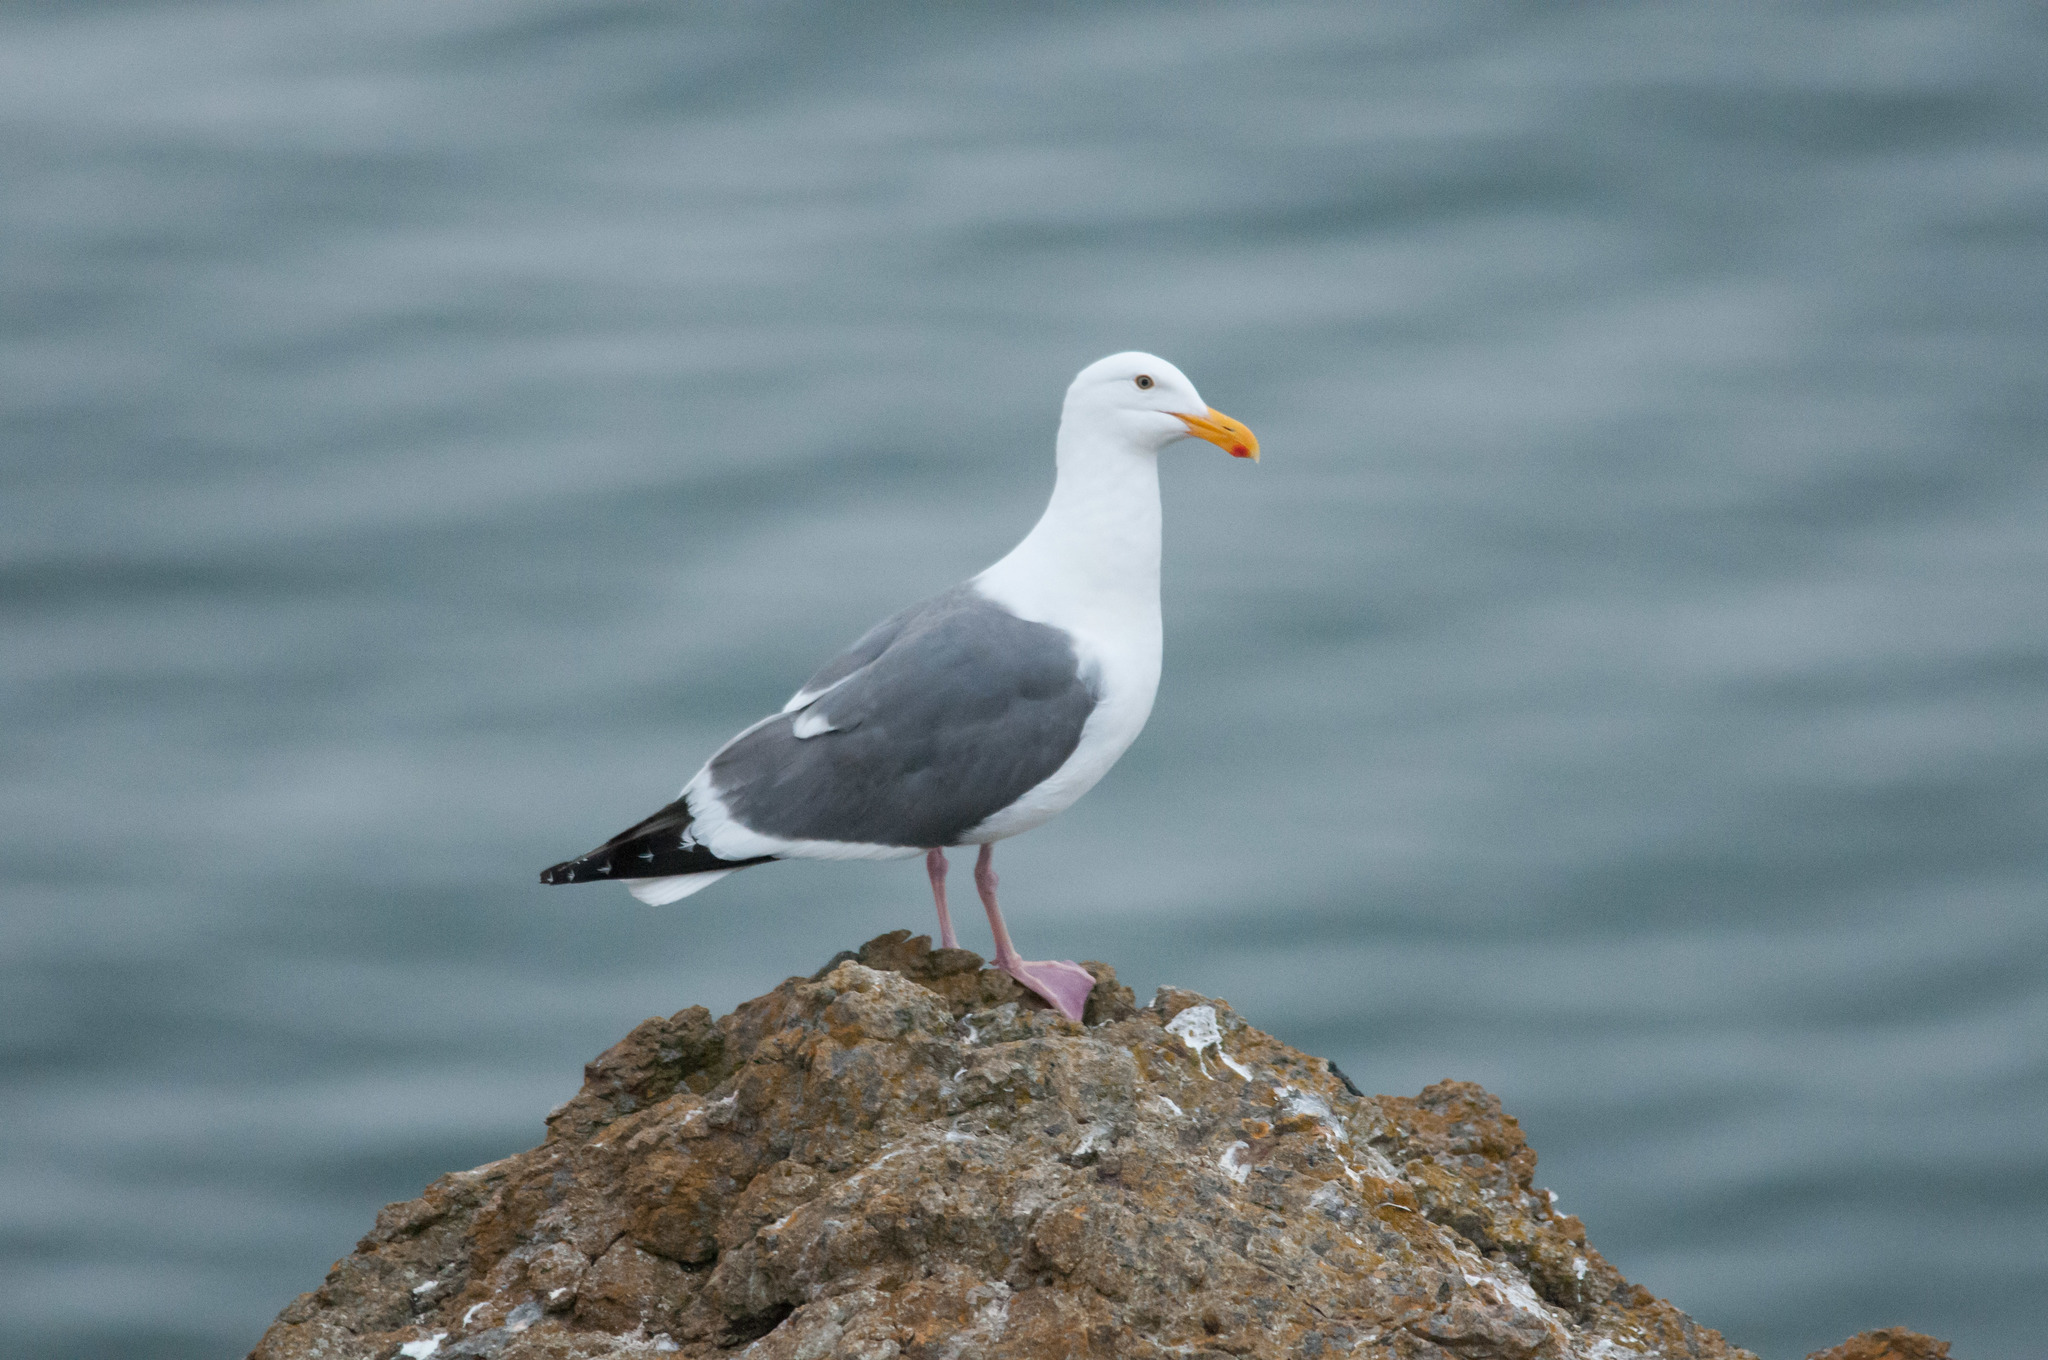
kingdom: Animalia
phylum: Chordata
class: Aves
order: Charadriiformes
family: Laridae
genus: Larus
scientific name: Larus occidentalis
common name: Western gull
